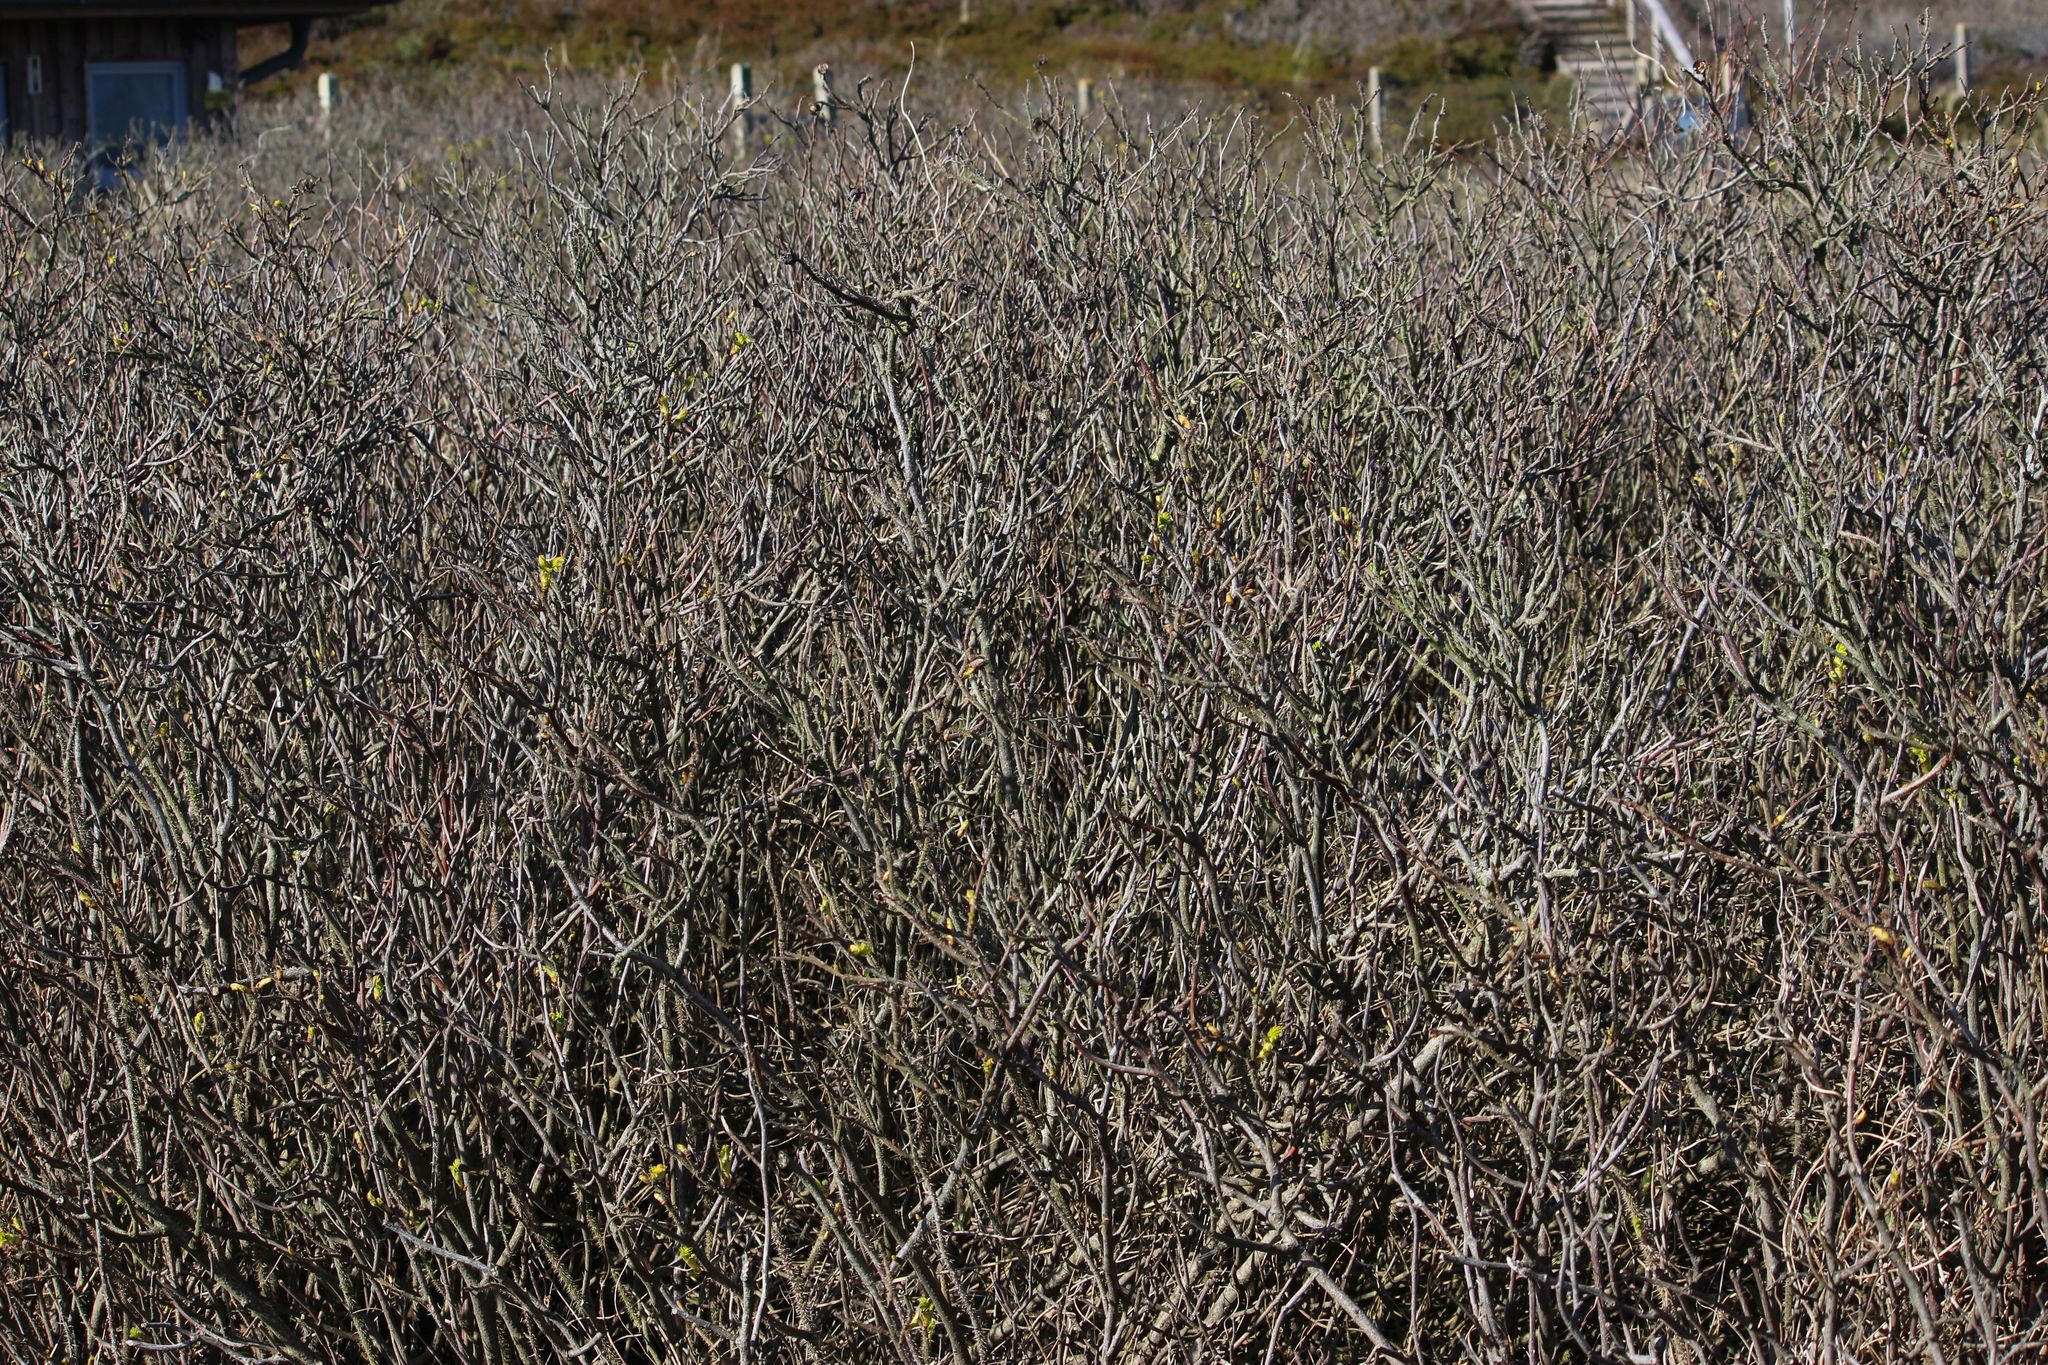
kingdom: Plantae
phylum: Tracheophyta
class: Magnoliopsida
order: Rosales
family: Rosaceae
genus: Rosa
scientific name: Rosa rugosa
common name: Japanese rose
